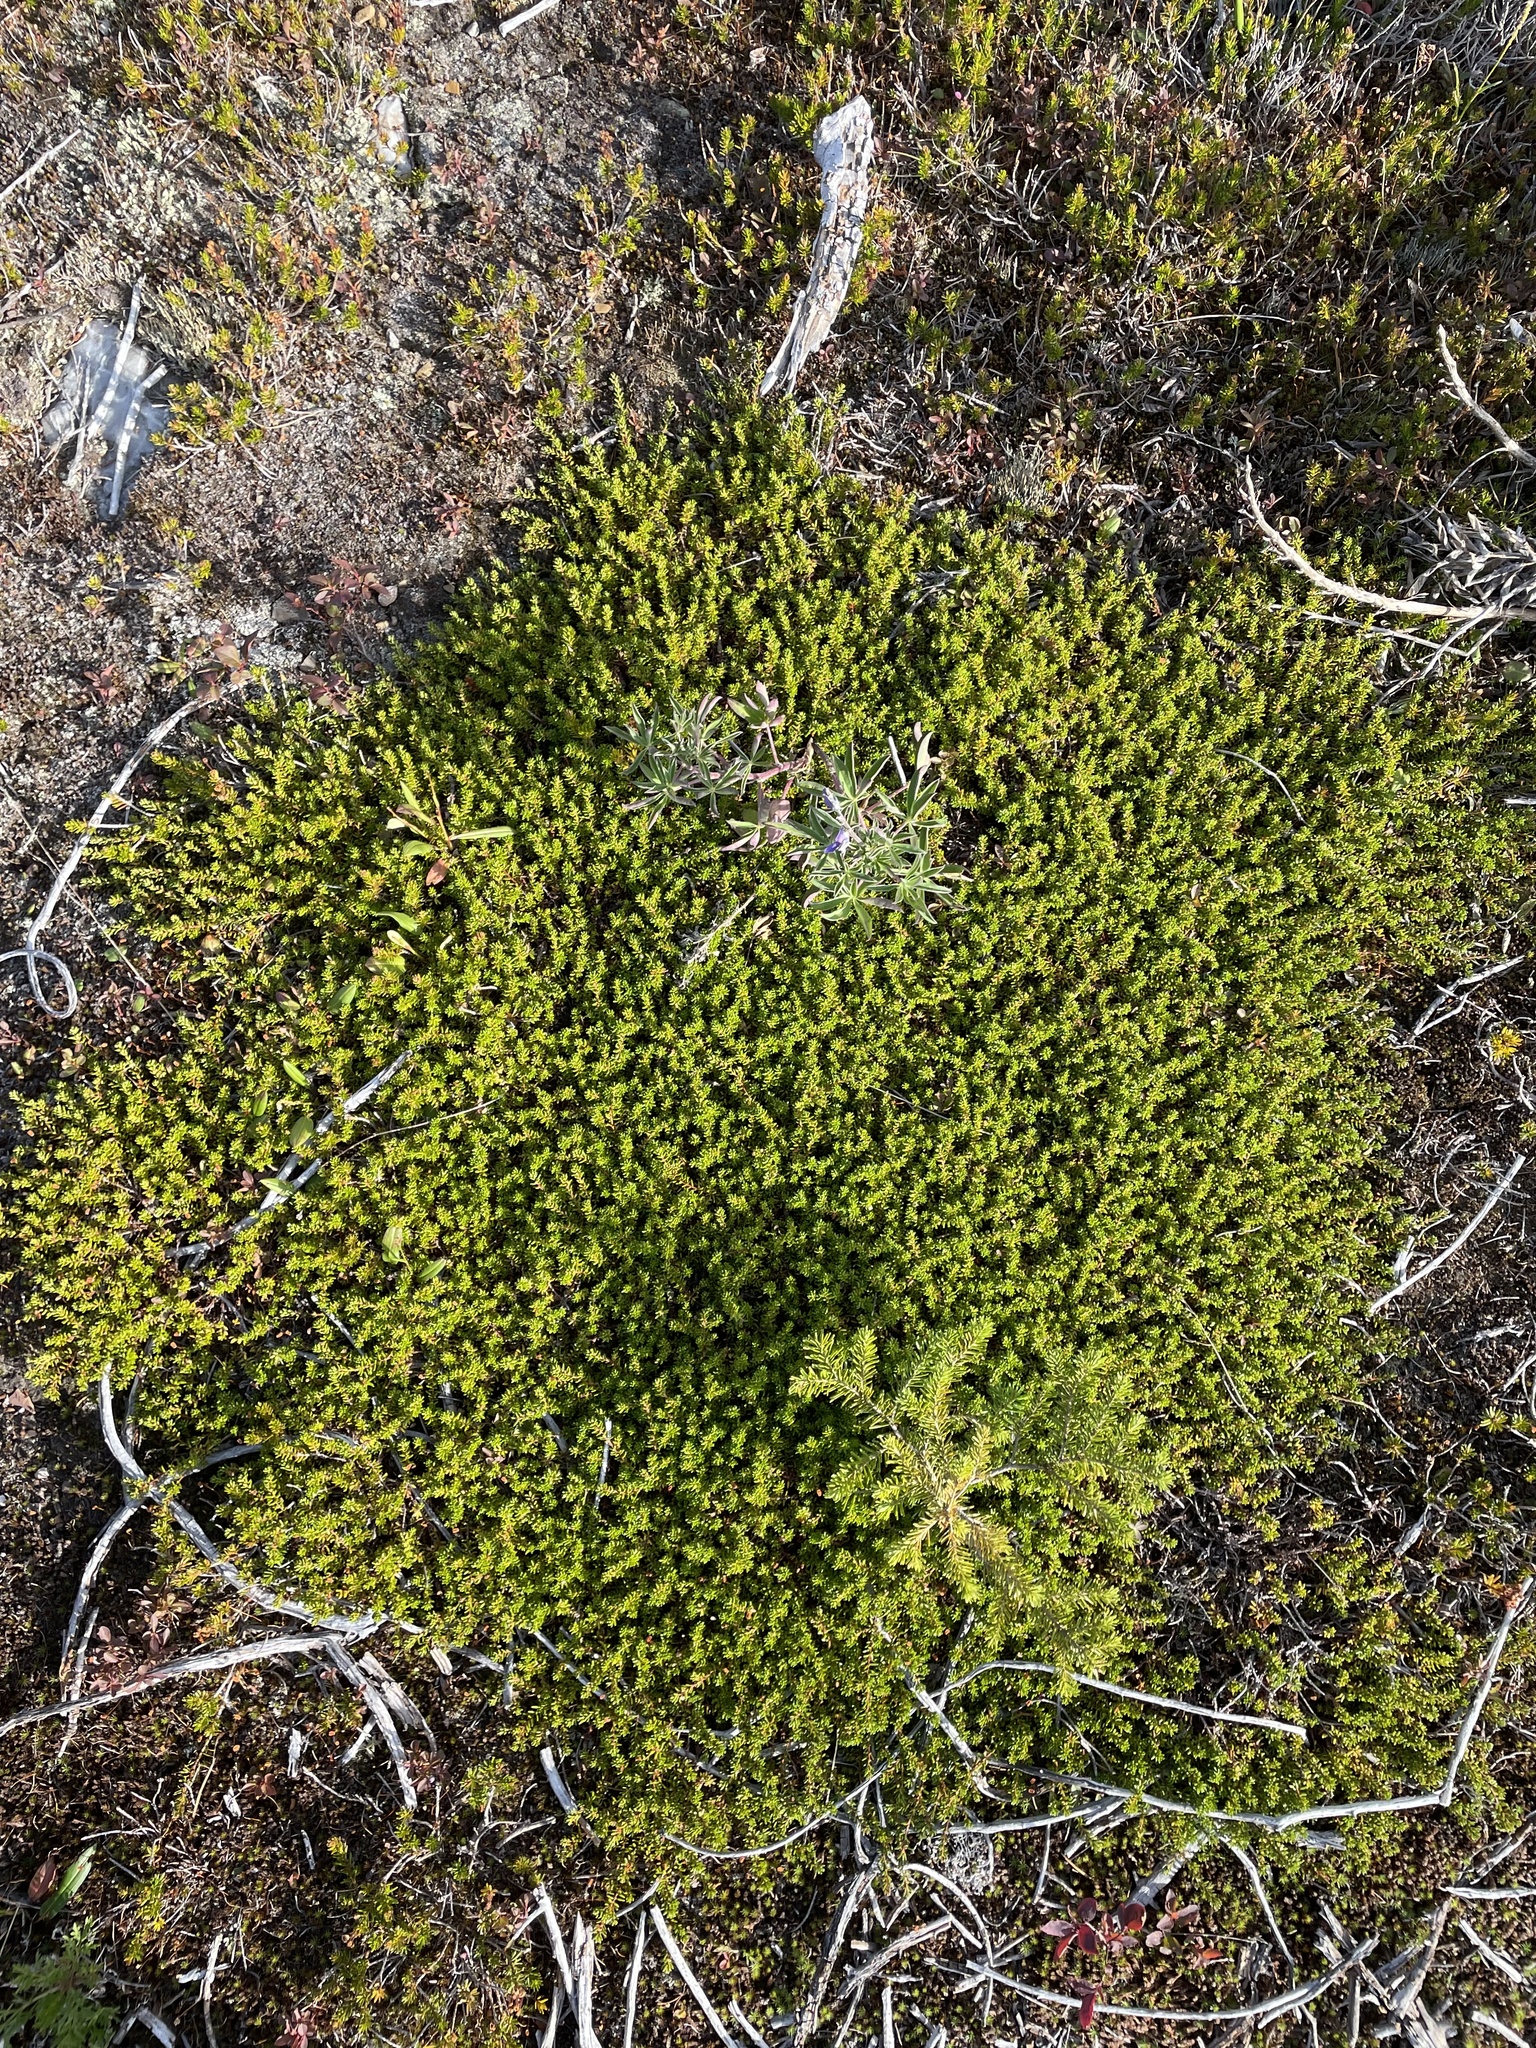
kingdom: Plantae
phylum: Tracheophyta
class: Magnoliopsida
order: Ericales
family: Ericaceae
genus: Empetrum
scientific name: Empetrum nigrum
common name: Black crowberry
